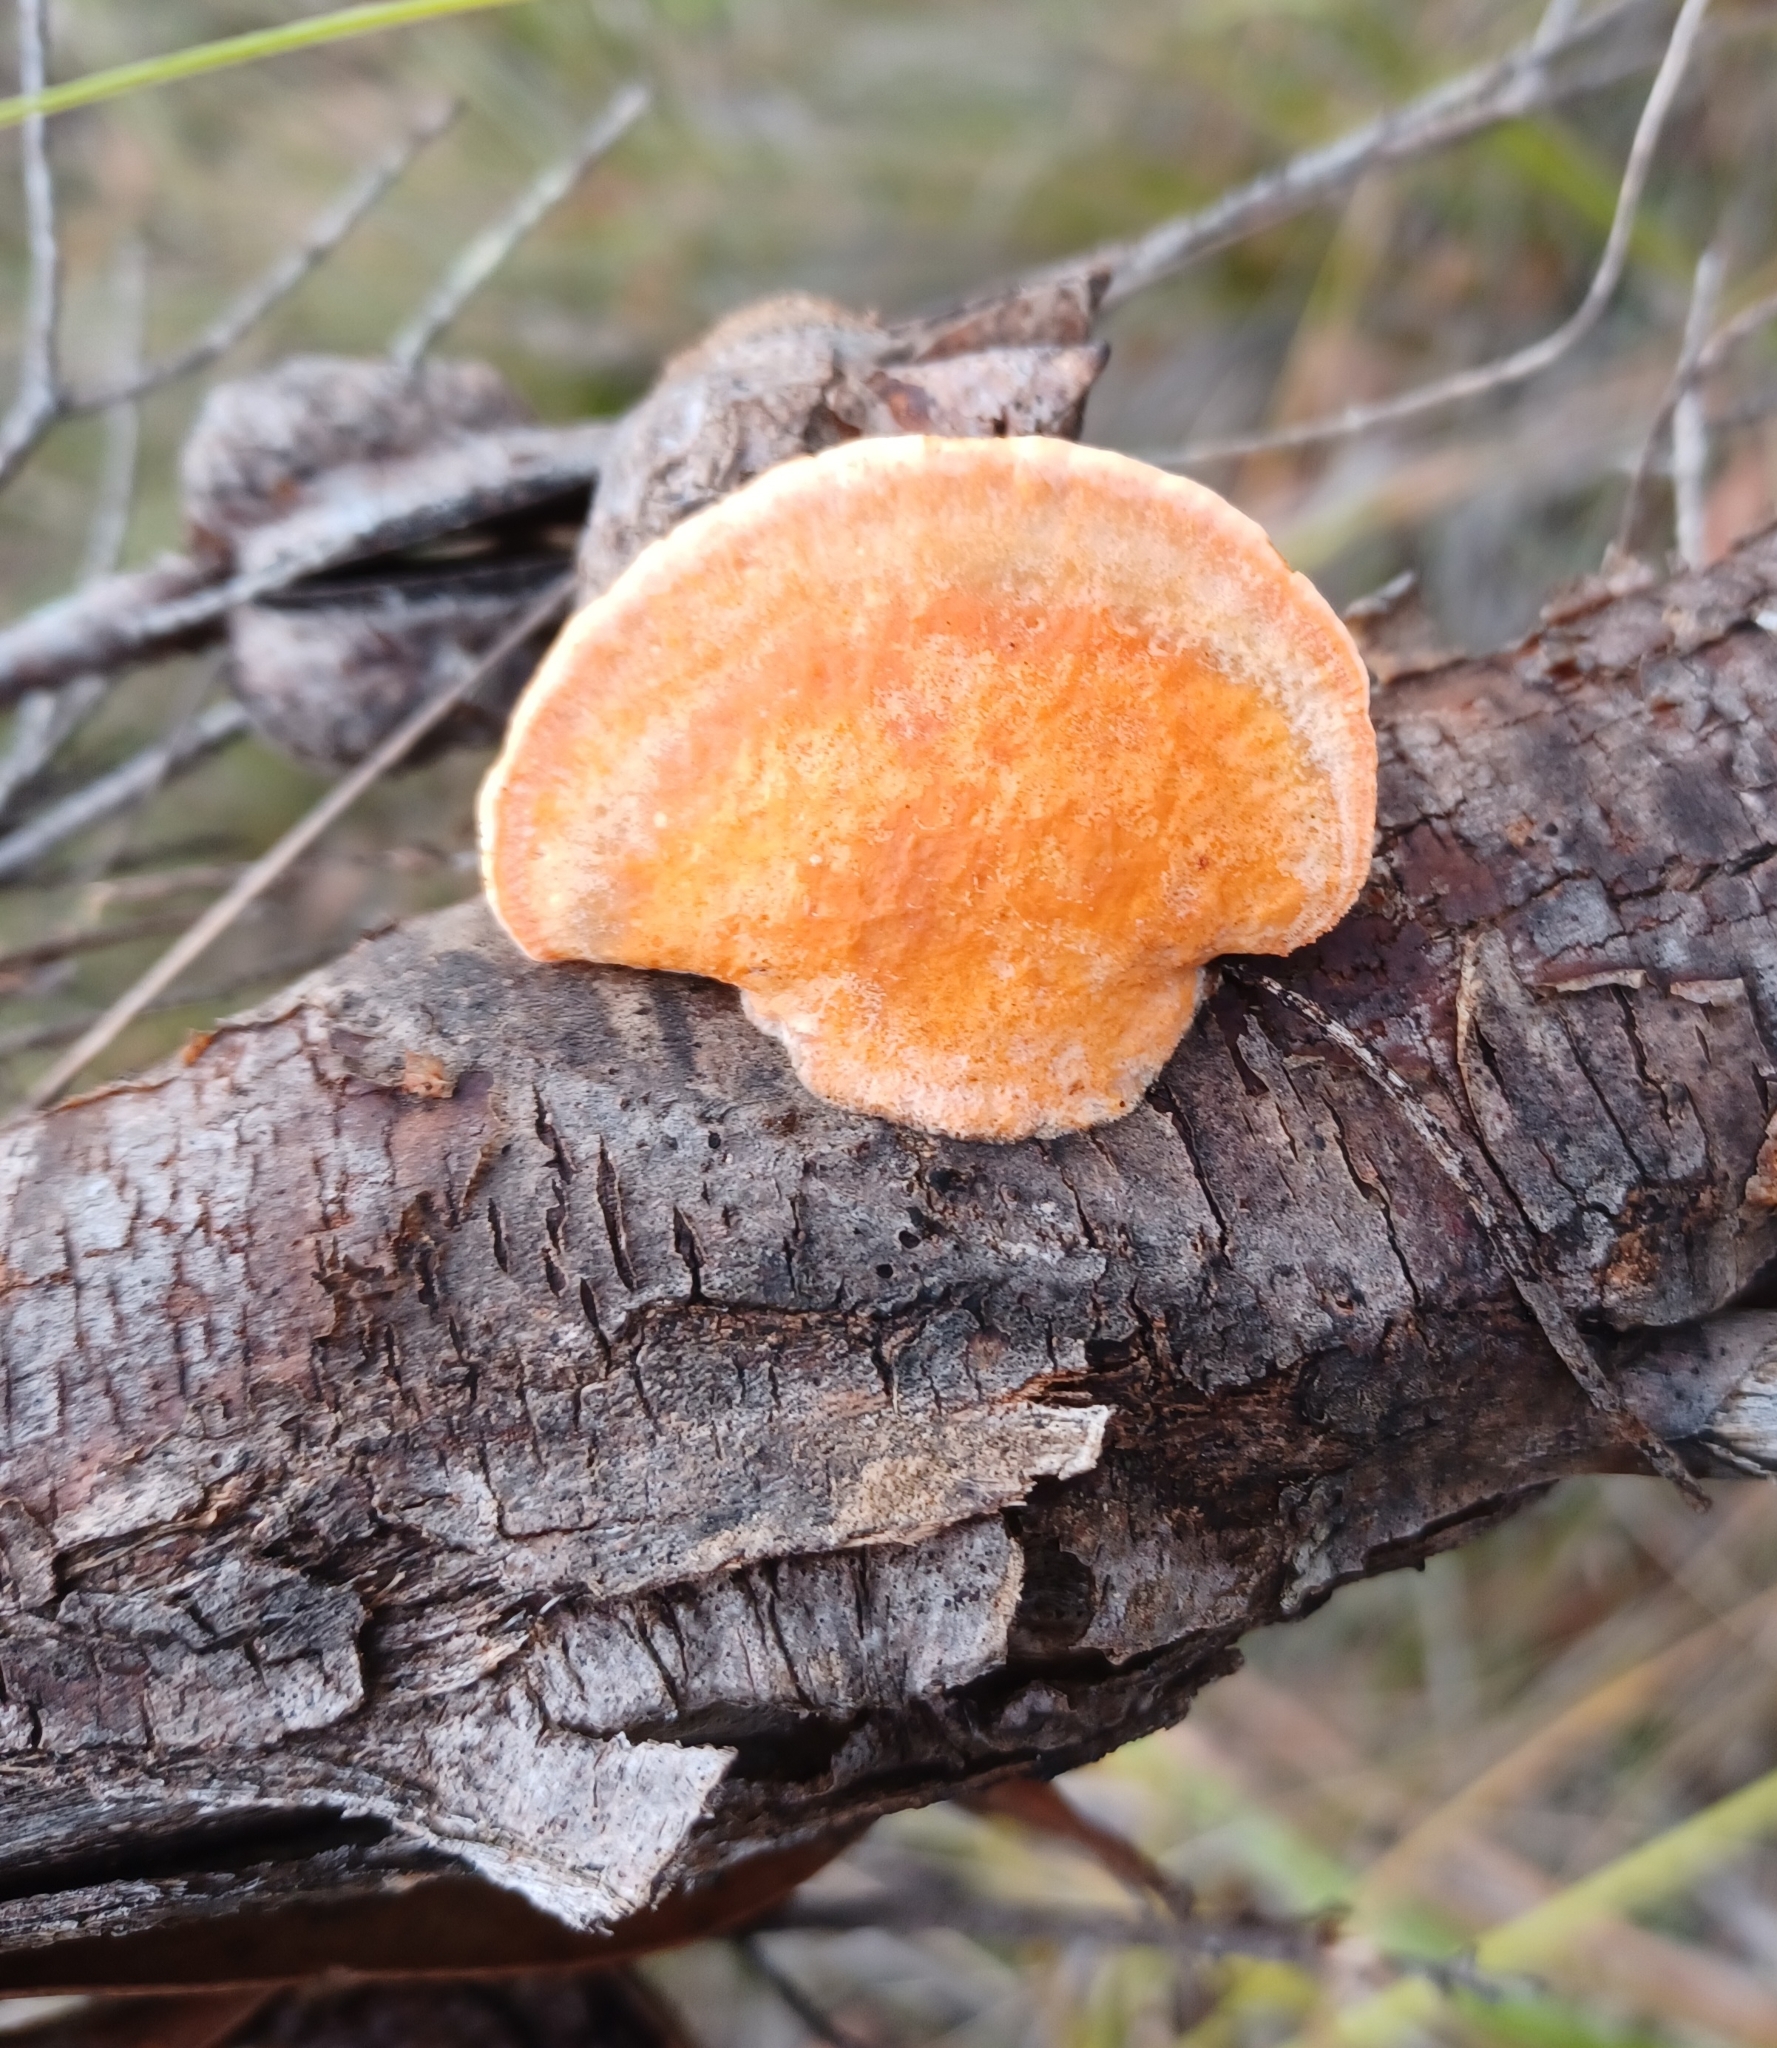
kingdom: Fungi
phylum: Basidiomycota
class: Agaricomycetes
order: Polyporales
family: Polyporaceae
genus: Trametes
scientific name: Trametes coccinea
